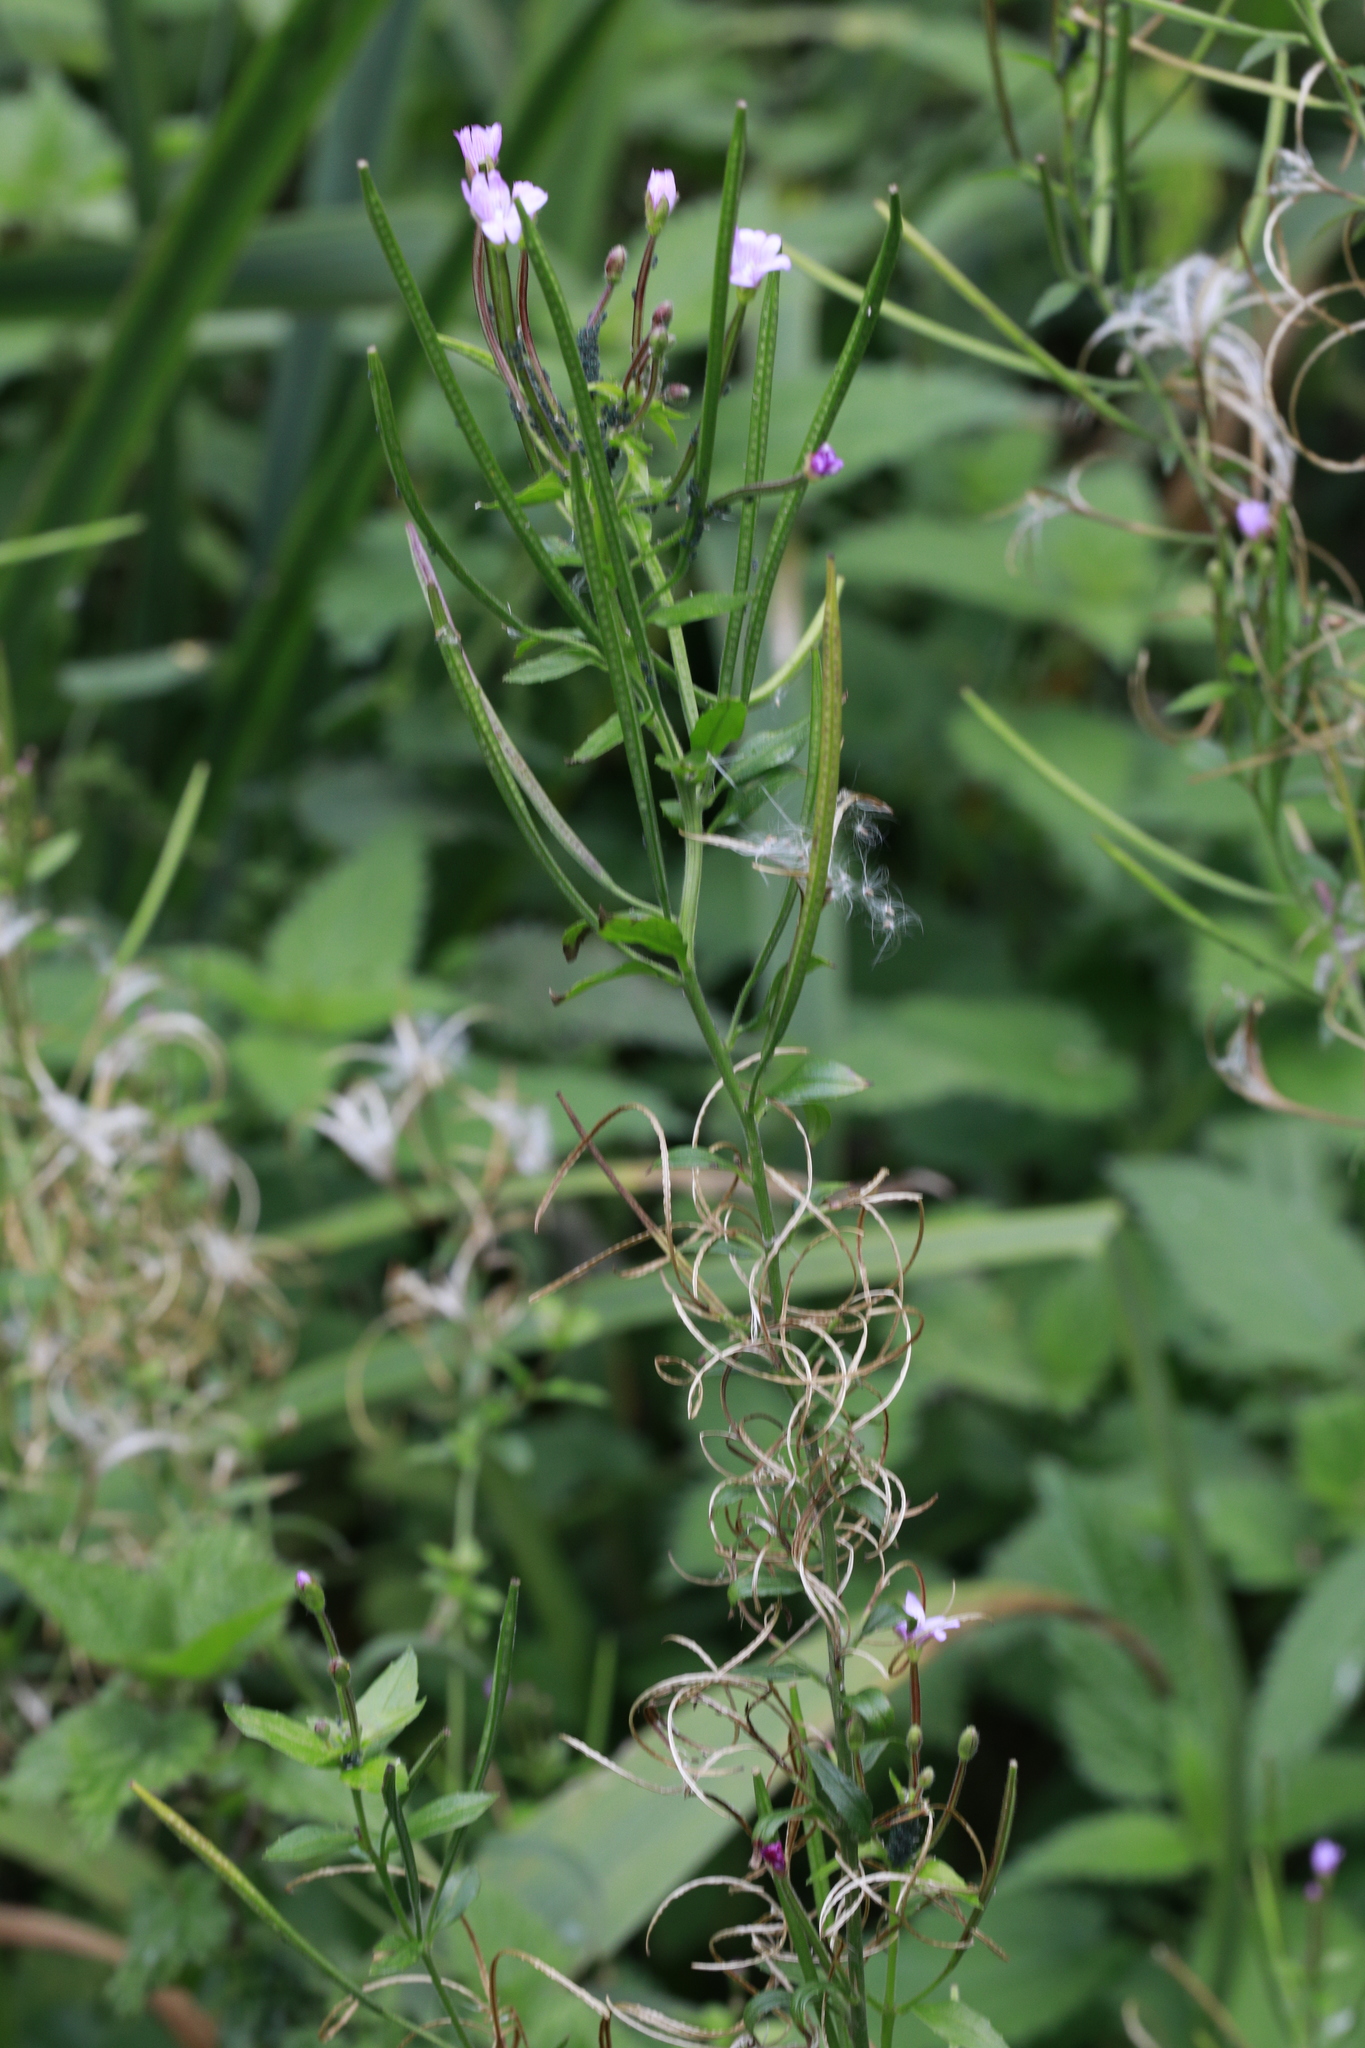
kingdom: Plantae
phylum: Tracheophyta
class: Magnoliopsida
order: Myrtales
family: Onagraceae
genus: Epilobium
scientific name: Epilobium ciliatum
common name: American willowherb
